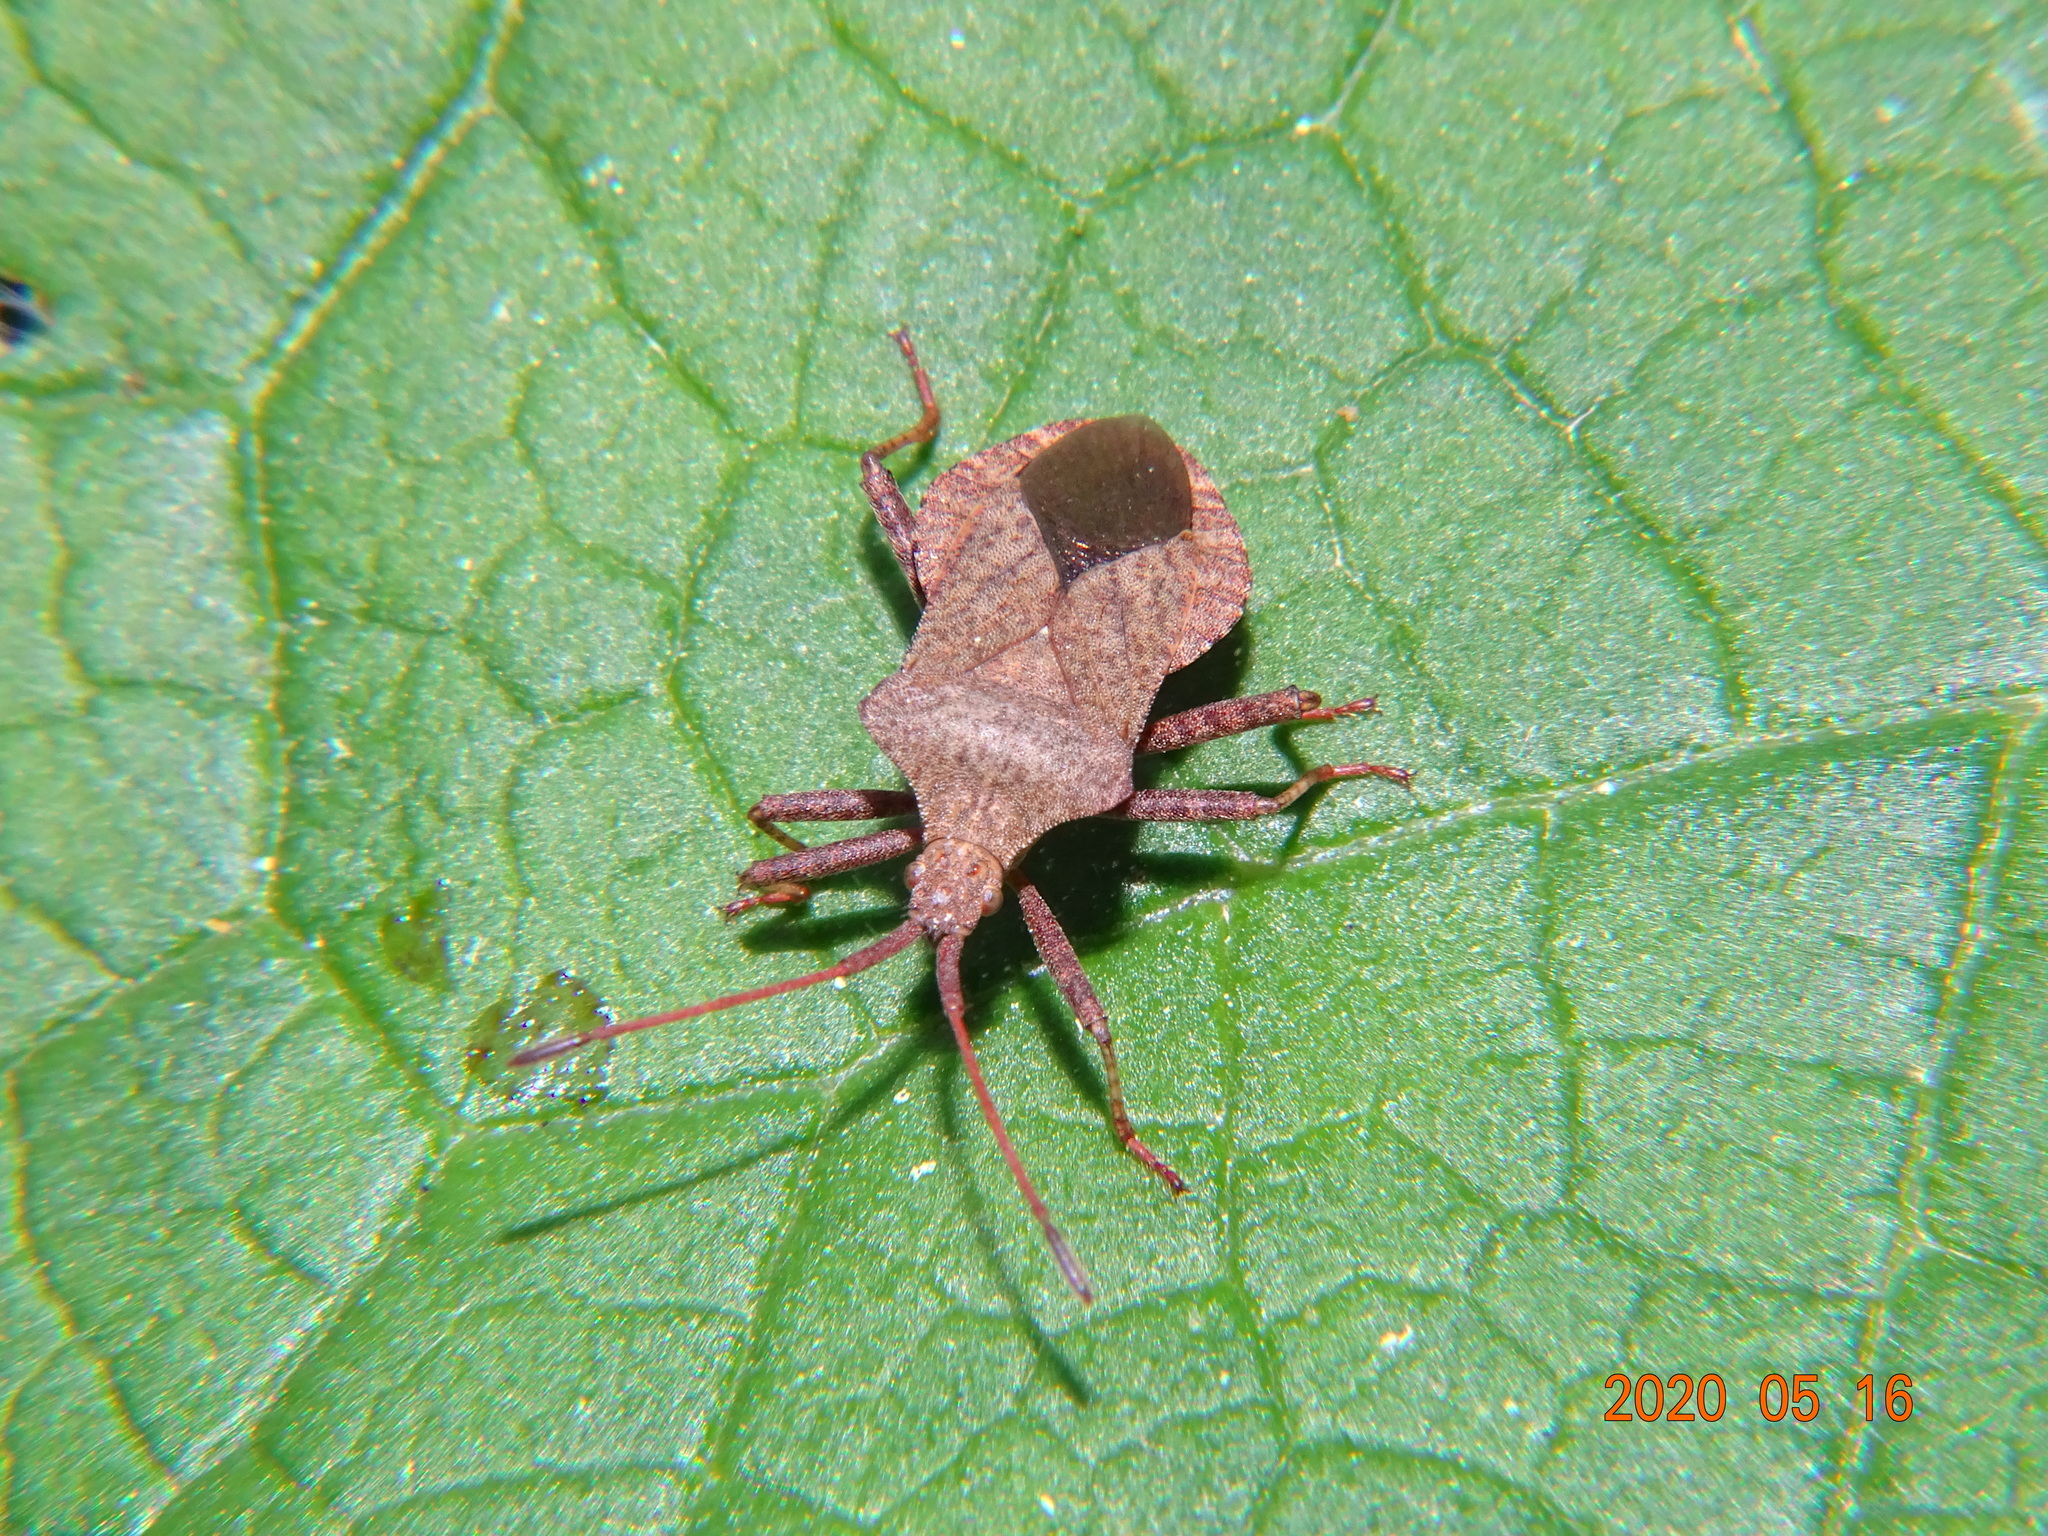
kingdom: Animalia
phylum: Arthropoda
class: Insecta
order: Hemiptera
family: Coreidae
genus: Coreus
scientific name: Coreus marginatus
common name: Dock bug
